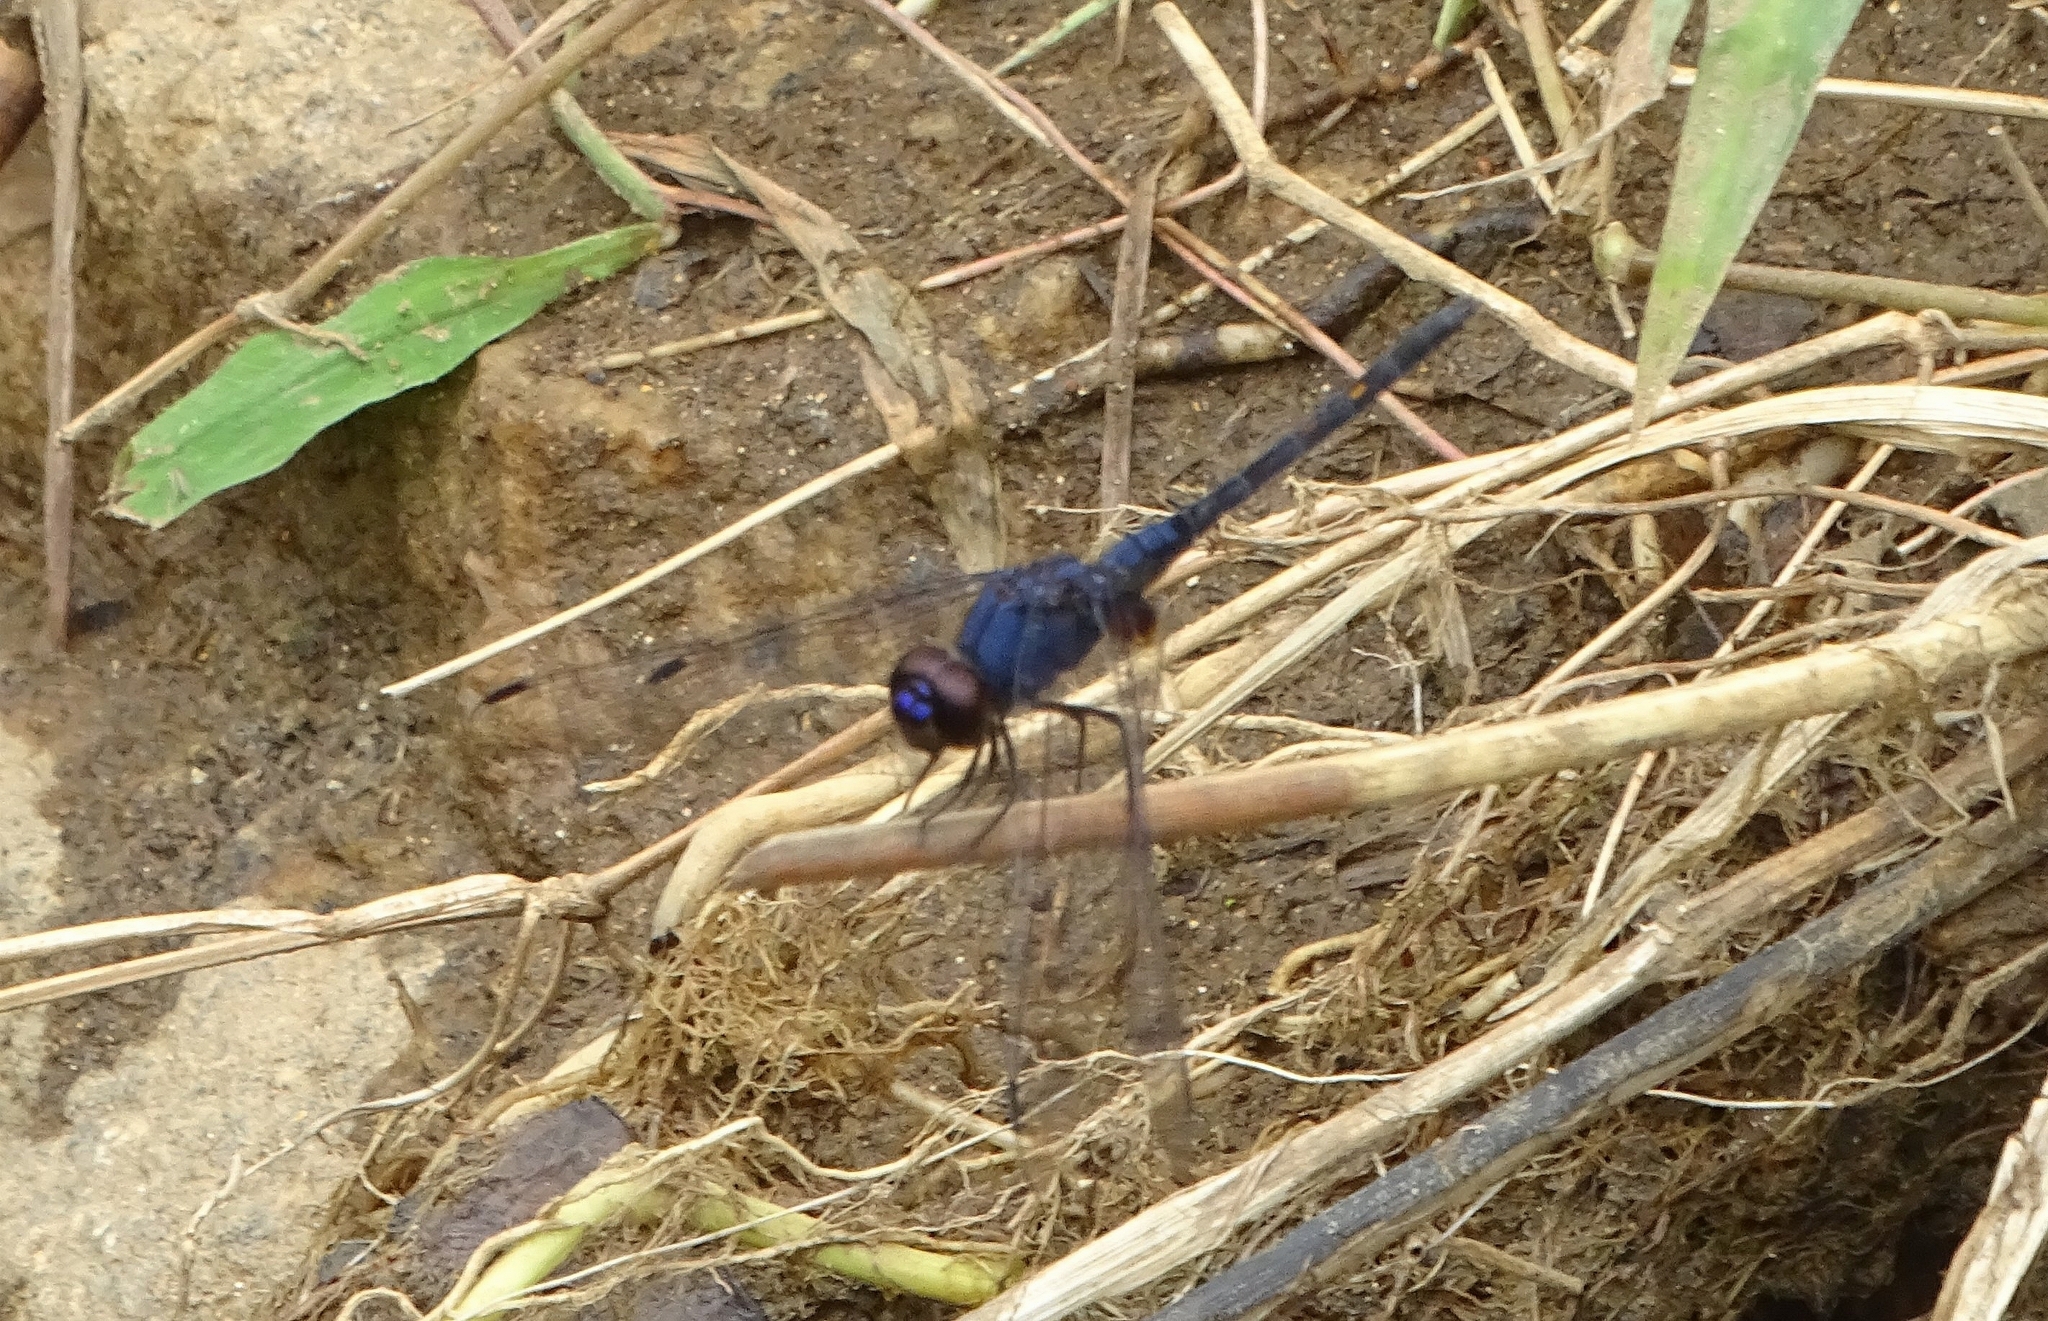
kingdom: Animalia
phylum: Arthropoda
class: Insecta
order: Odonata
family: Libellulidae
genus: Trithemis
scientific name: Trithemis festiva
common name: Indigo dropwing
